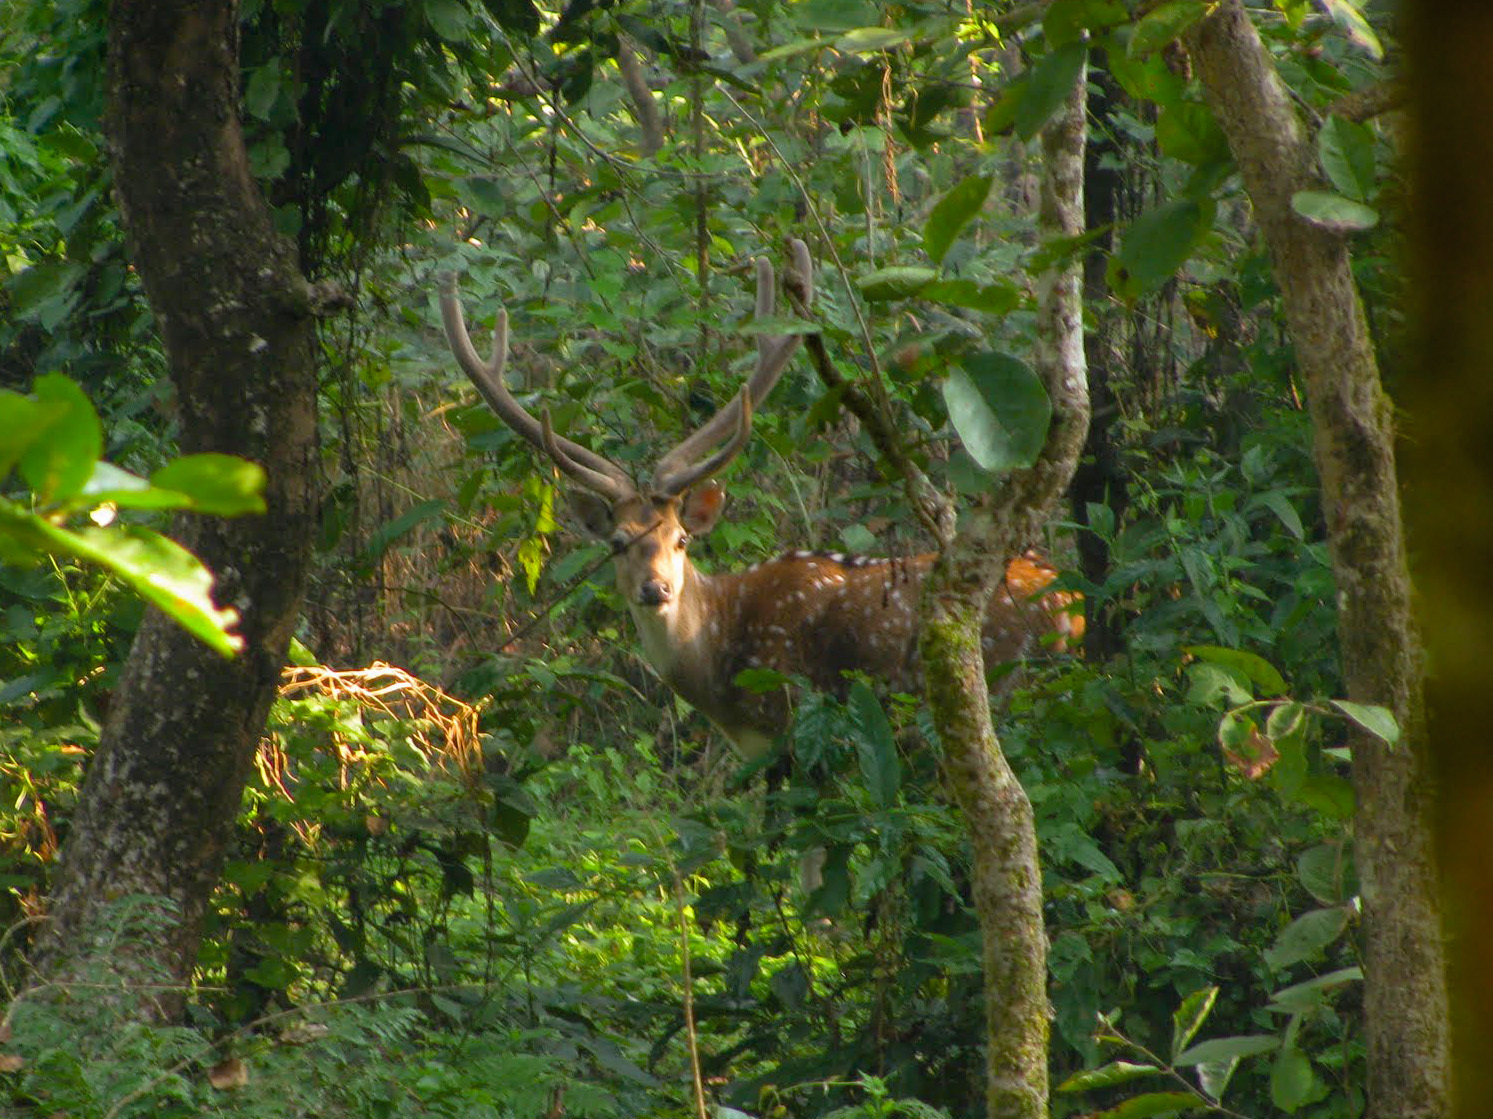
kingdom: Animalia
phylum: Chordata
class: Mammalia
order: Artiodactyla
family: Cervidae
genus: Axis
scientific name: Axis axis
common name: Chital
